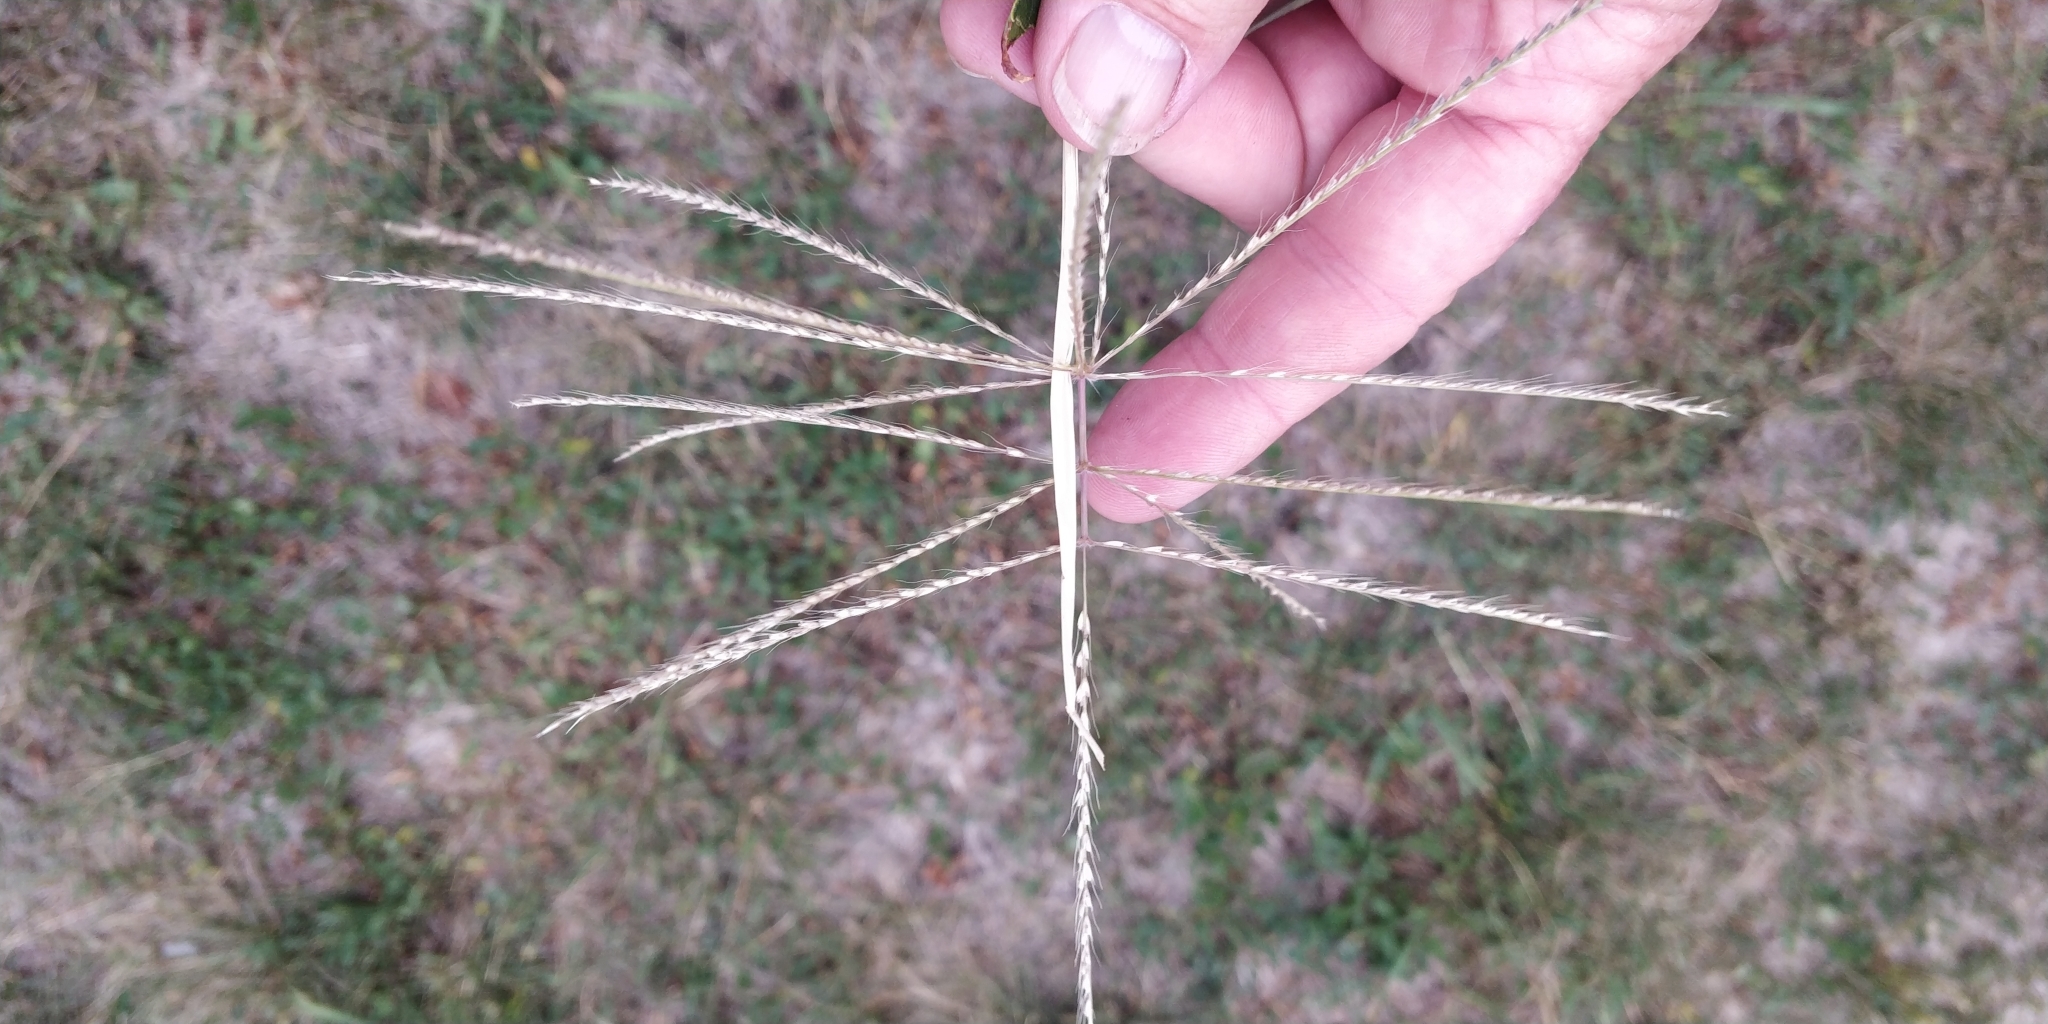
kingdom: Plantae
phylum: Tracheophyta
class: Liliopsida
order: Poales
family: Poaceae
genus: Chloris
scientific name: Chloris verticillata
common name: Tumble windmill grass
